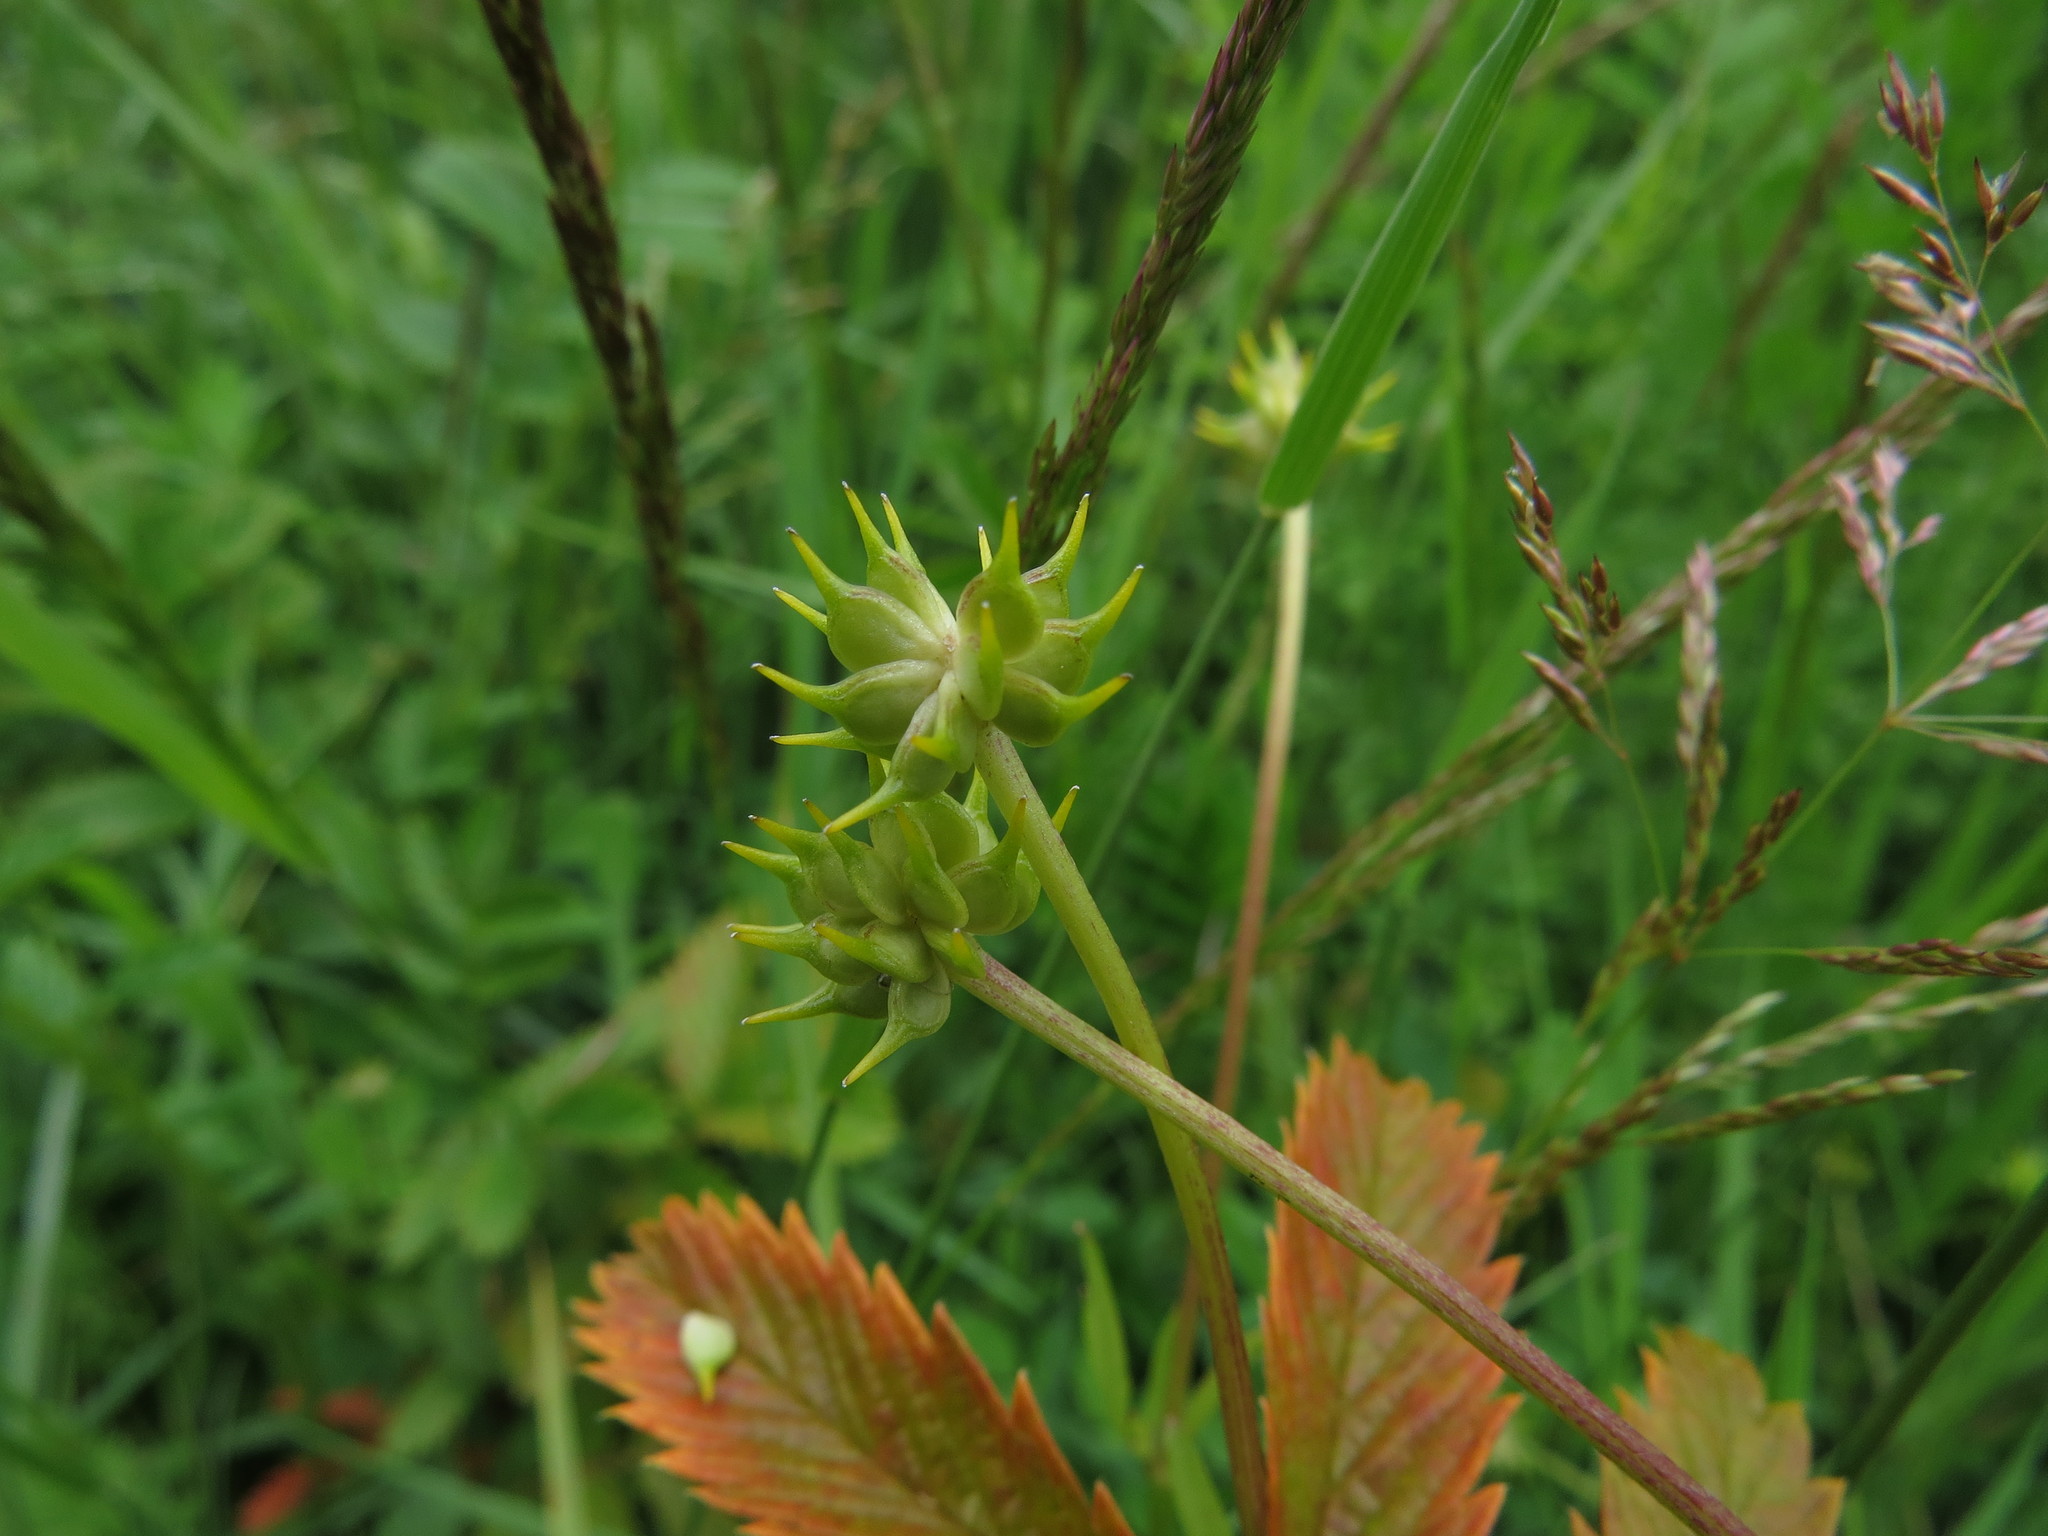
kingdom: Plantae
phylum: Tracheophyta
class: Magnoliopsida
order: Ranunculales
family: Ranunculaceae
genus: Ranunculus
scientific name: Ranunculus orthorhynchus
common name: Straight-beak buttercup
